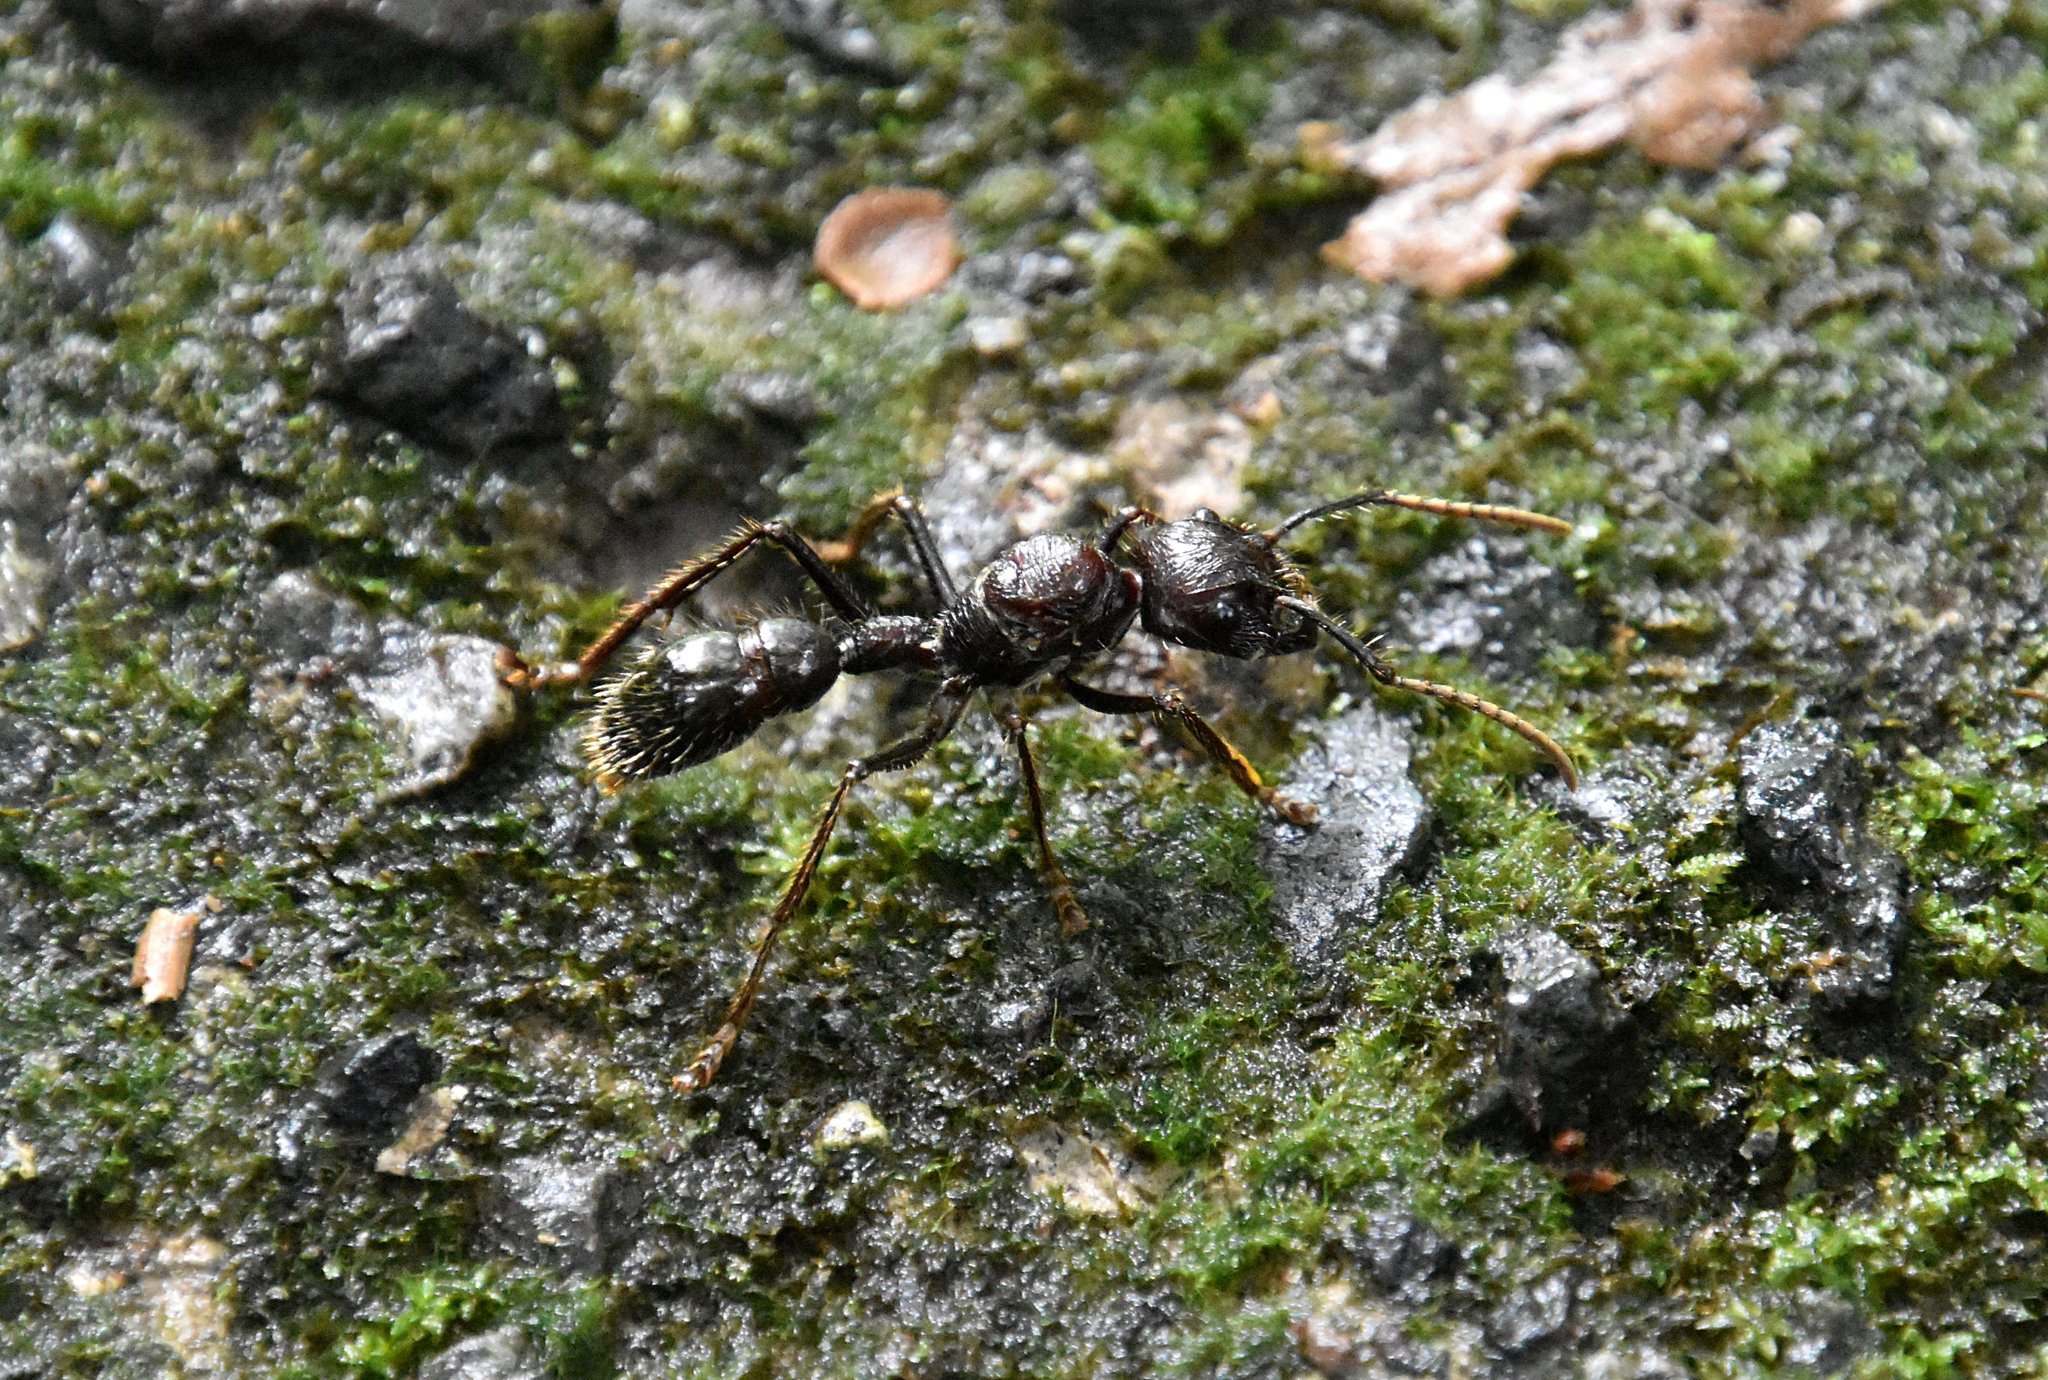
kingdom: Animalia
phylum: Arthropoda
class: Insecta
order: Hymenoptera
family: Formicidae
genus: Paraponera
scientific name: Paraponera clavata
